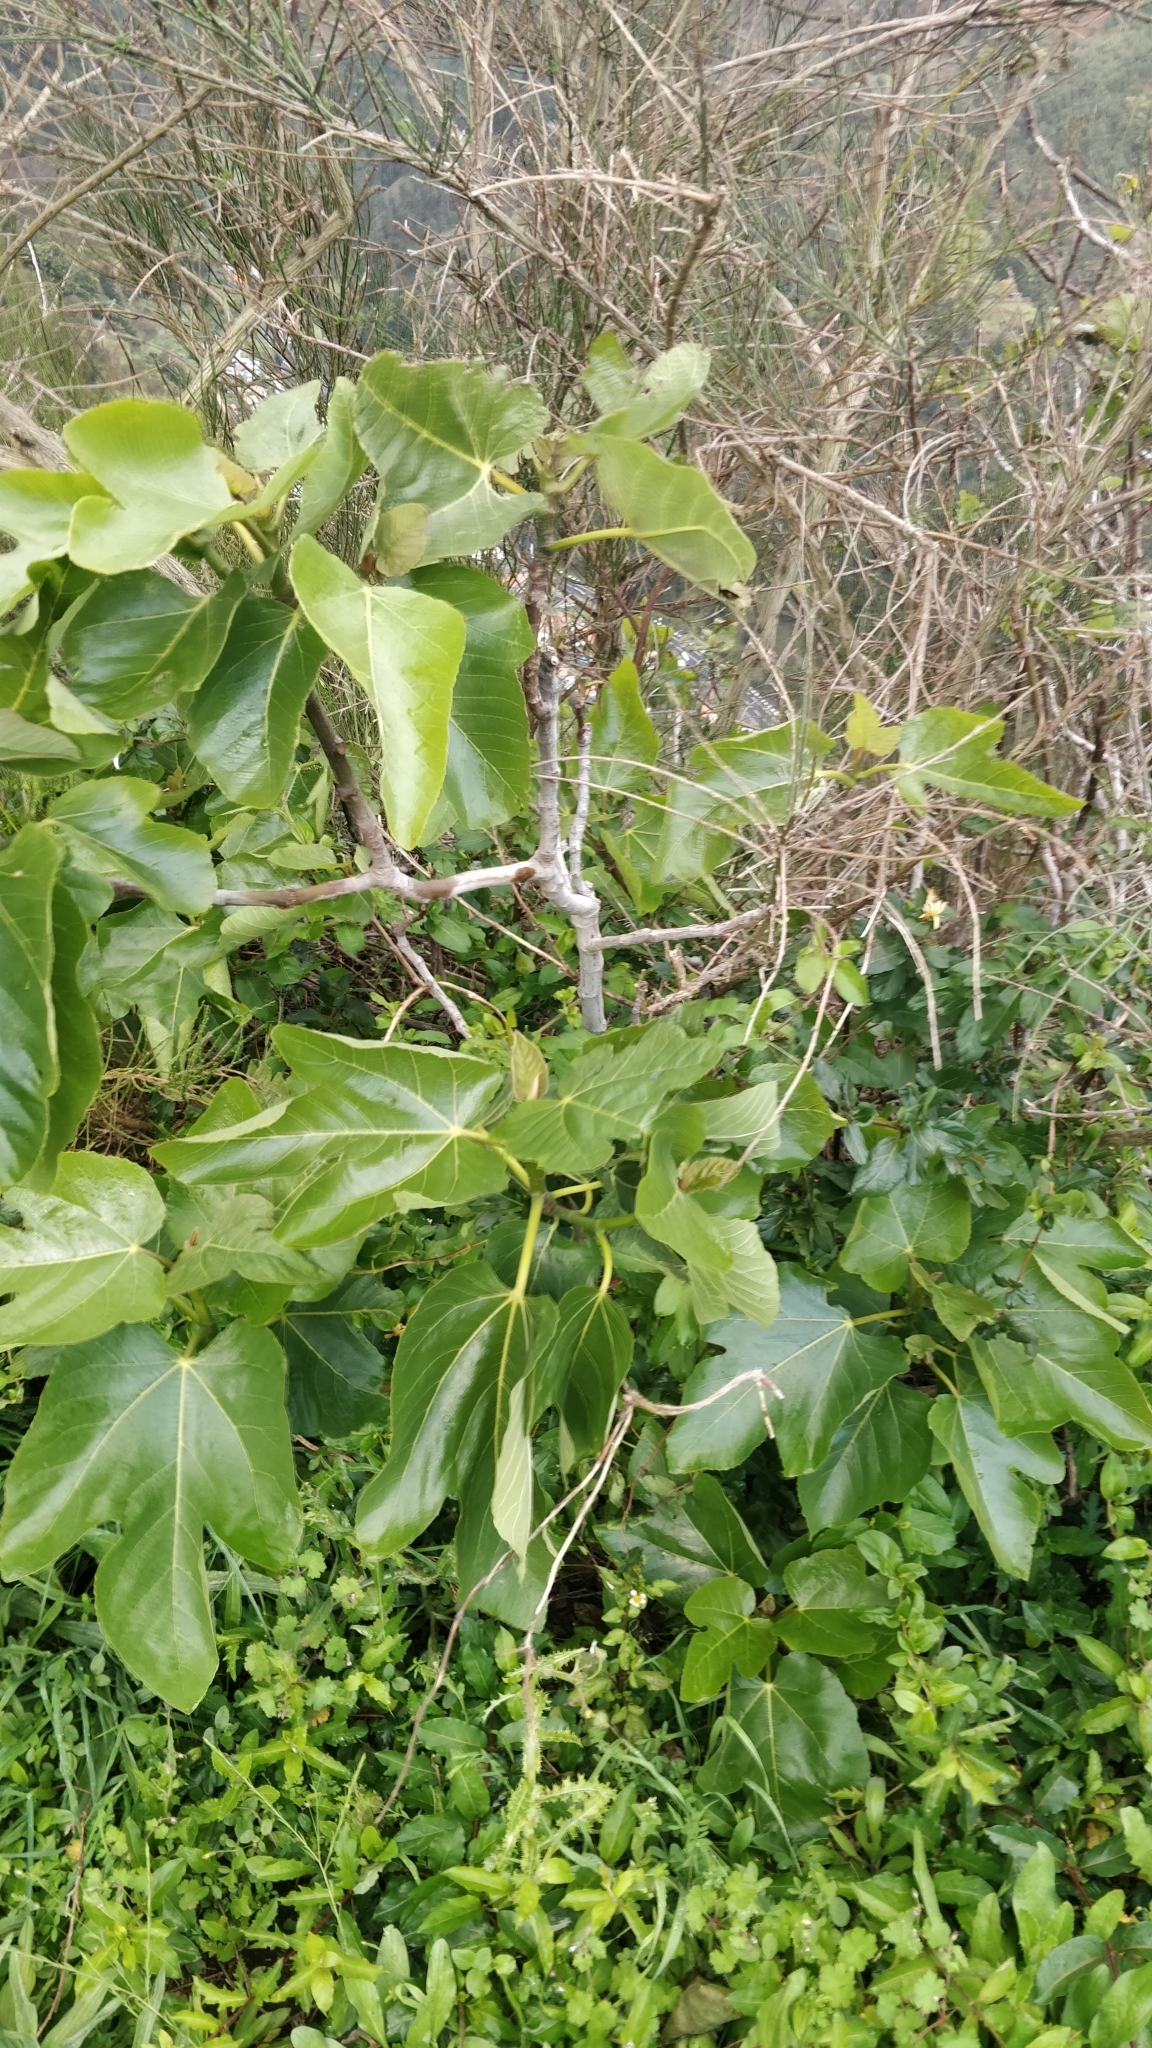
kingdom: Plantae
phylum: Tracheophyta
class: Magnoliopsida
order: Rosales
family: Moraceae
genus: Ficus
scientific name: Ficus carica
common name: Fig
